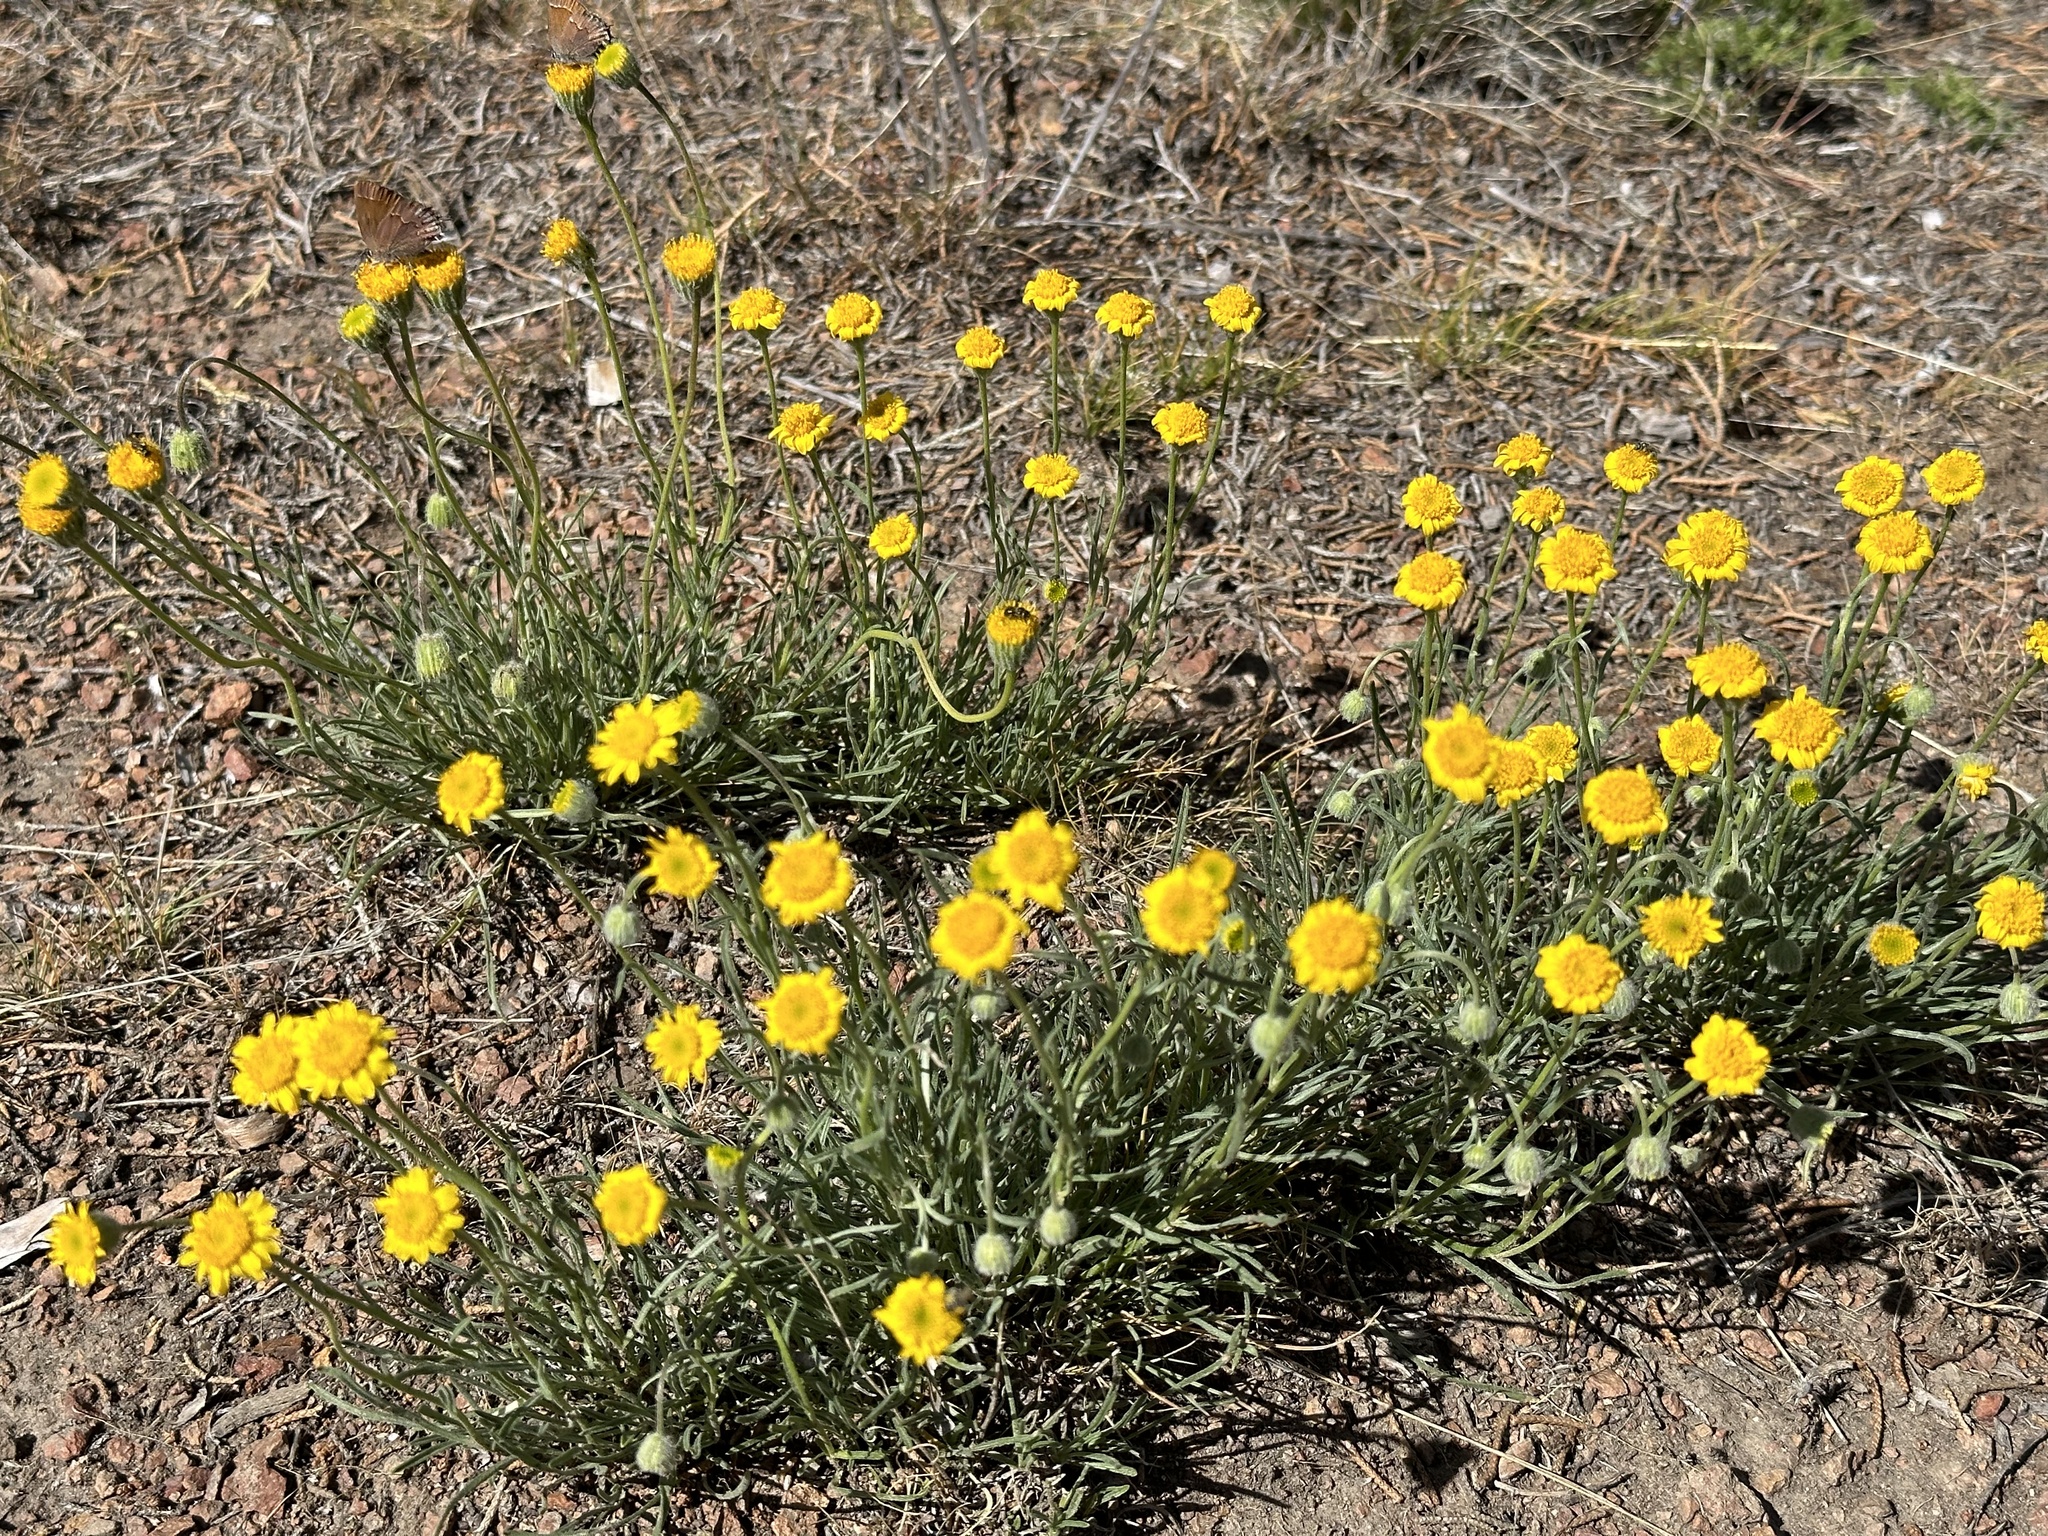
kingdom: Plantae
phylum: Tracheophyta
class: Magnoliopsida
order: Asterales
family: Asteraceae
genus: Erigeron
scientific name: Erigeron linearis
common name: Desert yellow fleabane
